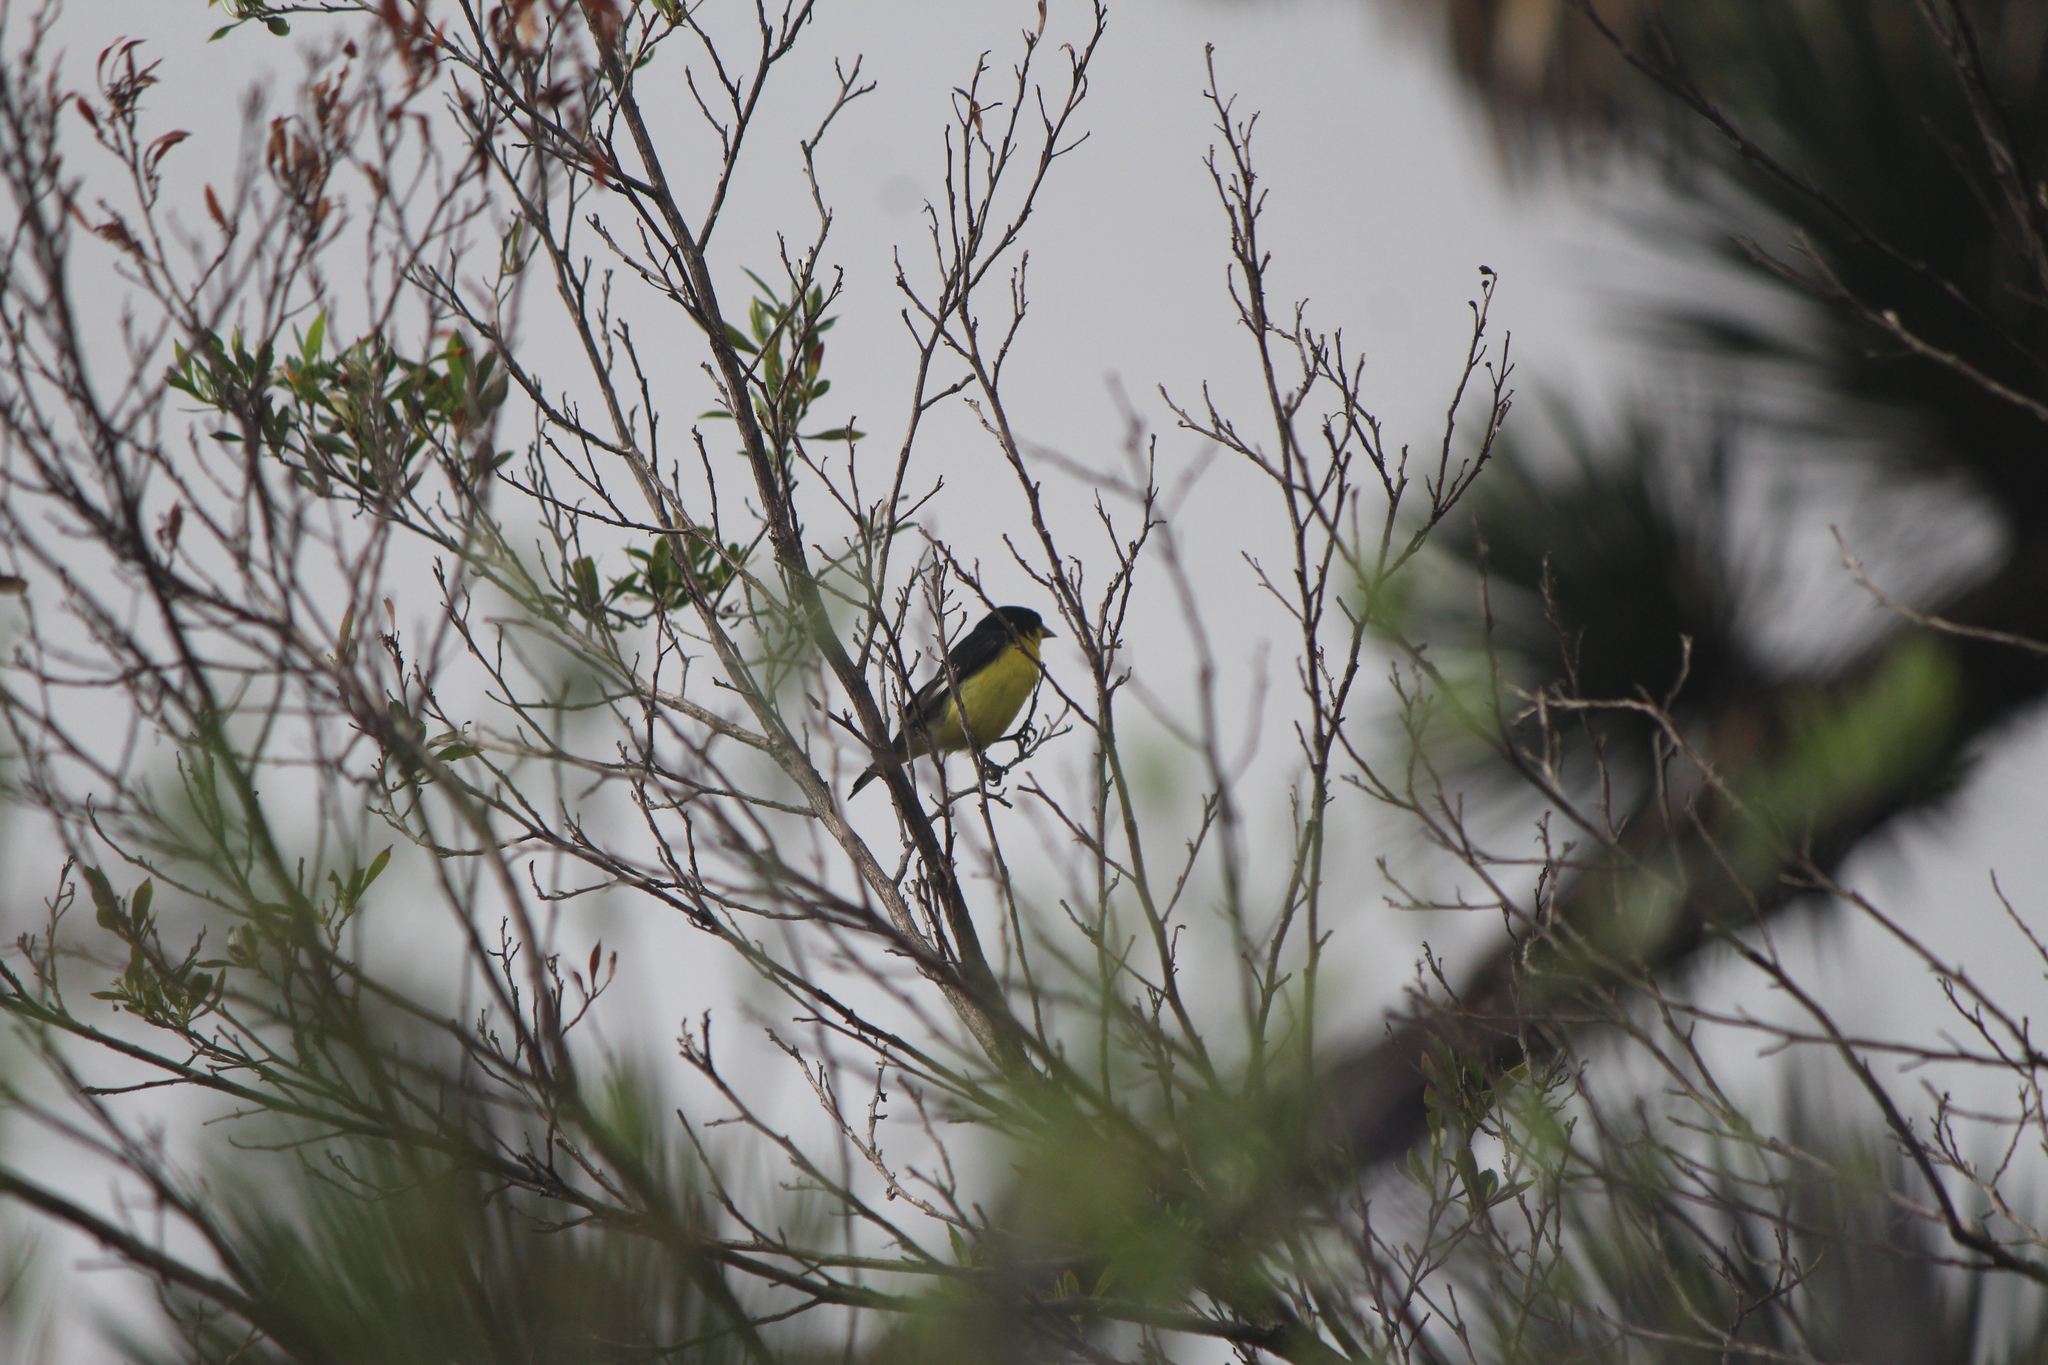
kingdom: Animalia
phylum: Chordata
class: Aves
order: Passeriformes
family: Fringillidae
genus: Spinus
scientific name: Spinus psaltria
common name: Lesser goldfinch
